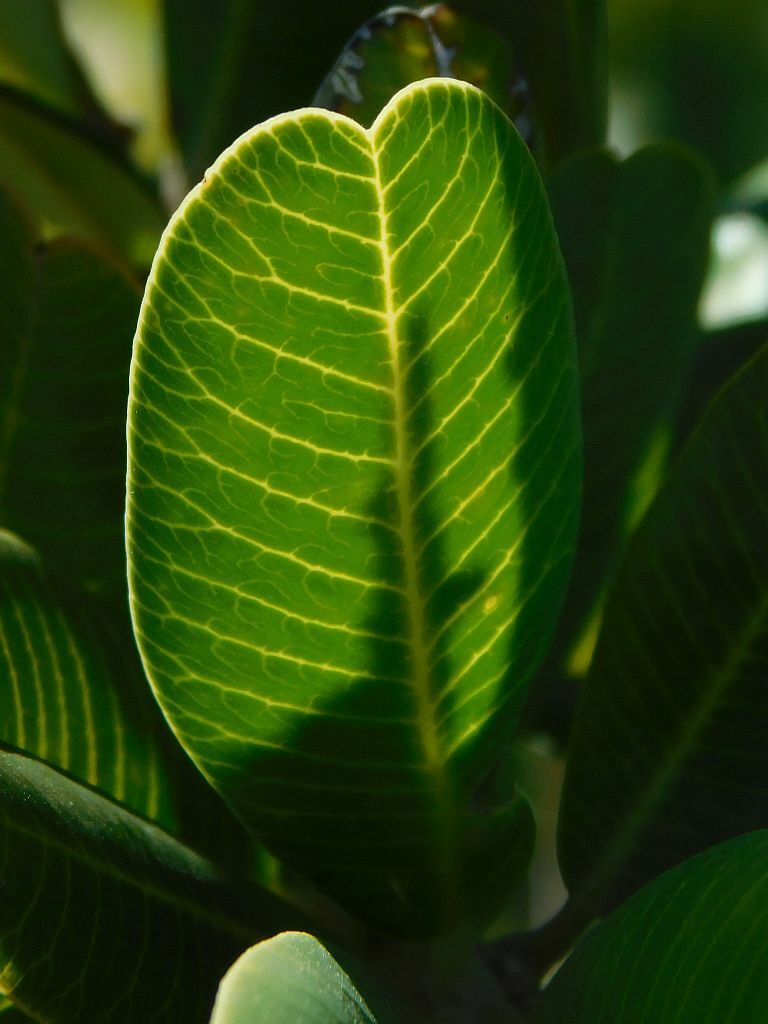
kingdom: Plantae
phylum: Tracheophyta
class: Magnoliopsida
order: Sapindales
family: Anacardiaceae
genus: Heeria
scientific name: Heeria argentea
